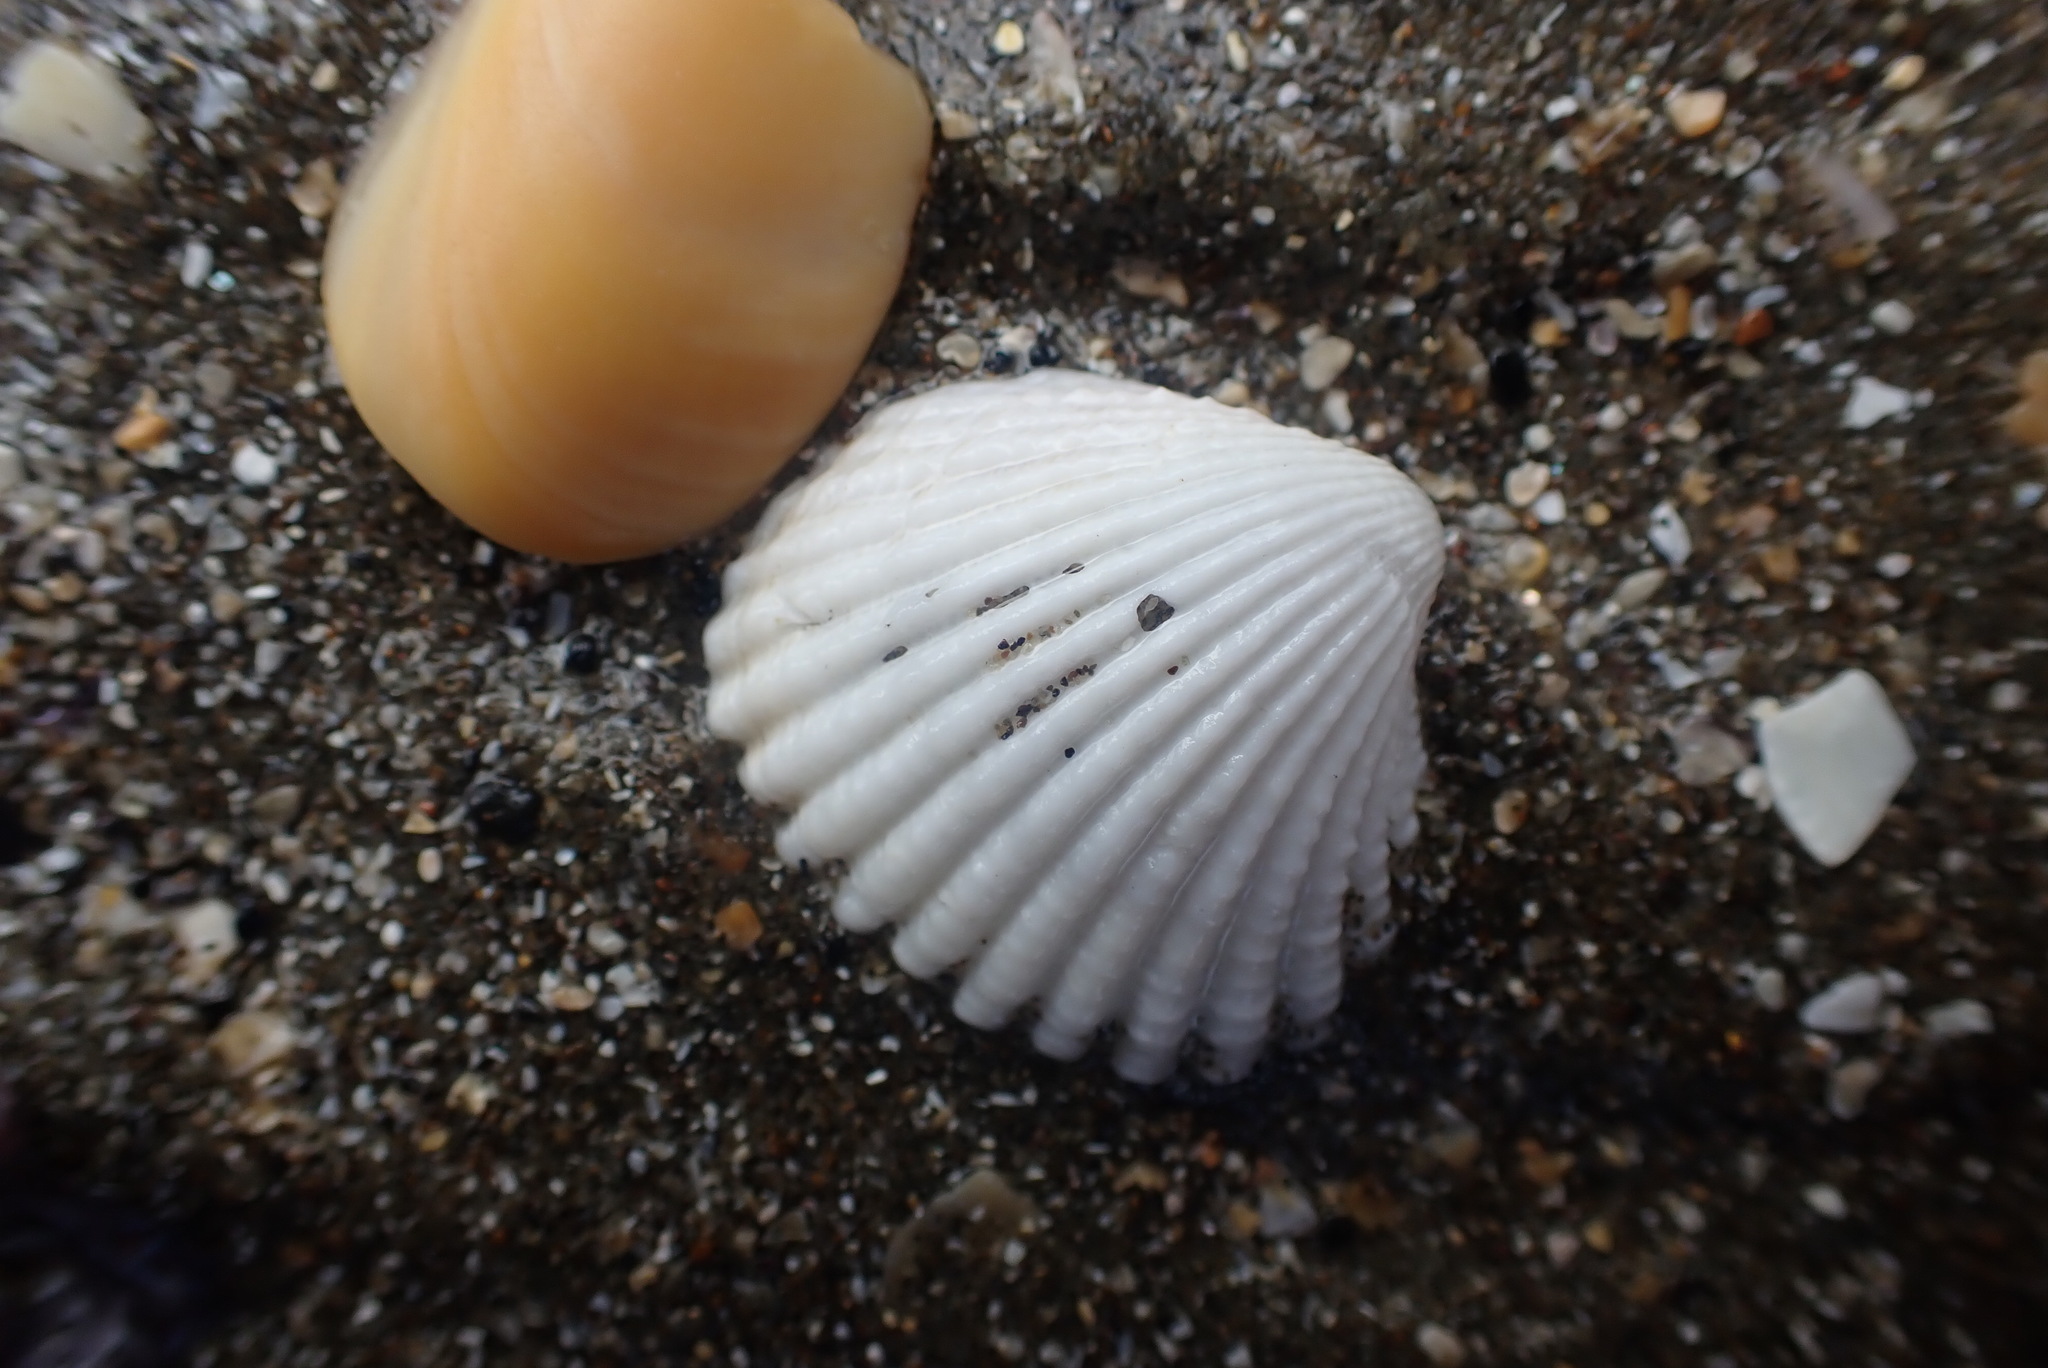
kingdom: Animalia
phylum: Mollusca
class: Bivalvia
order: Carditida
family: Carditidae
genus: Purpurocardia
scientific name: Purpurocardia purpurata
